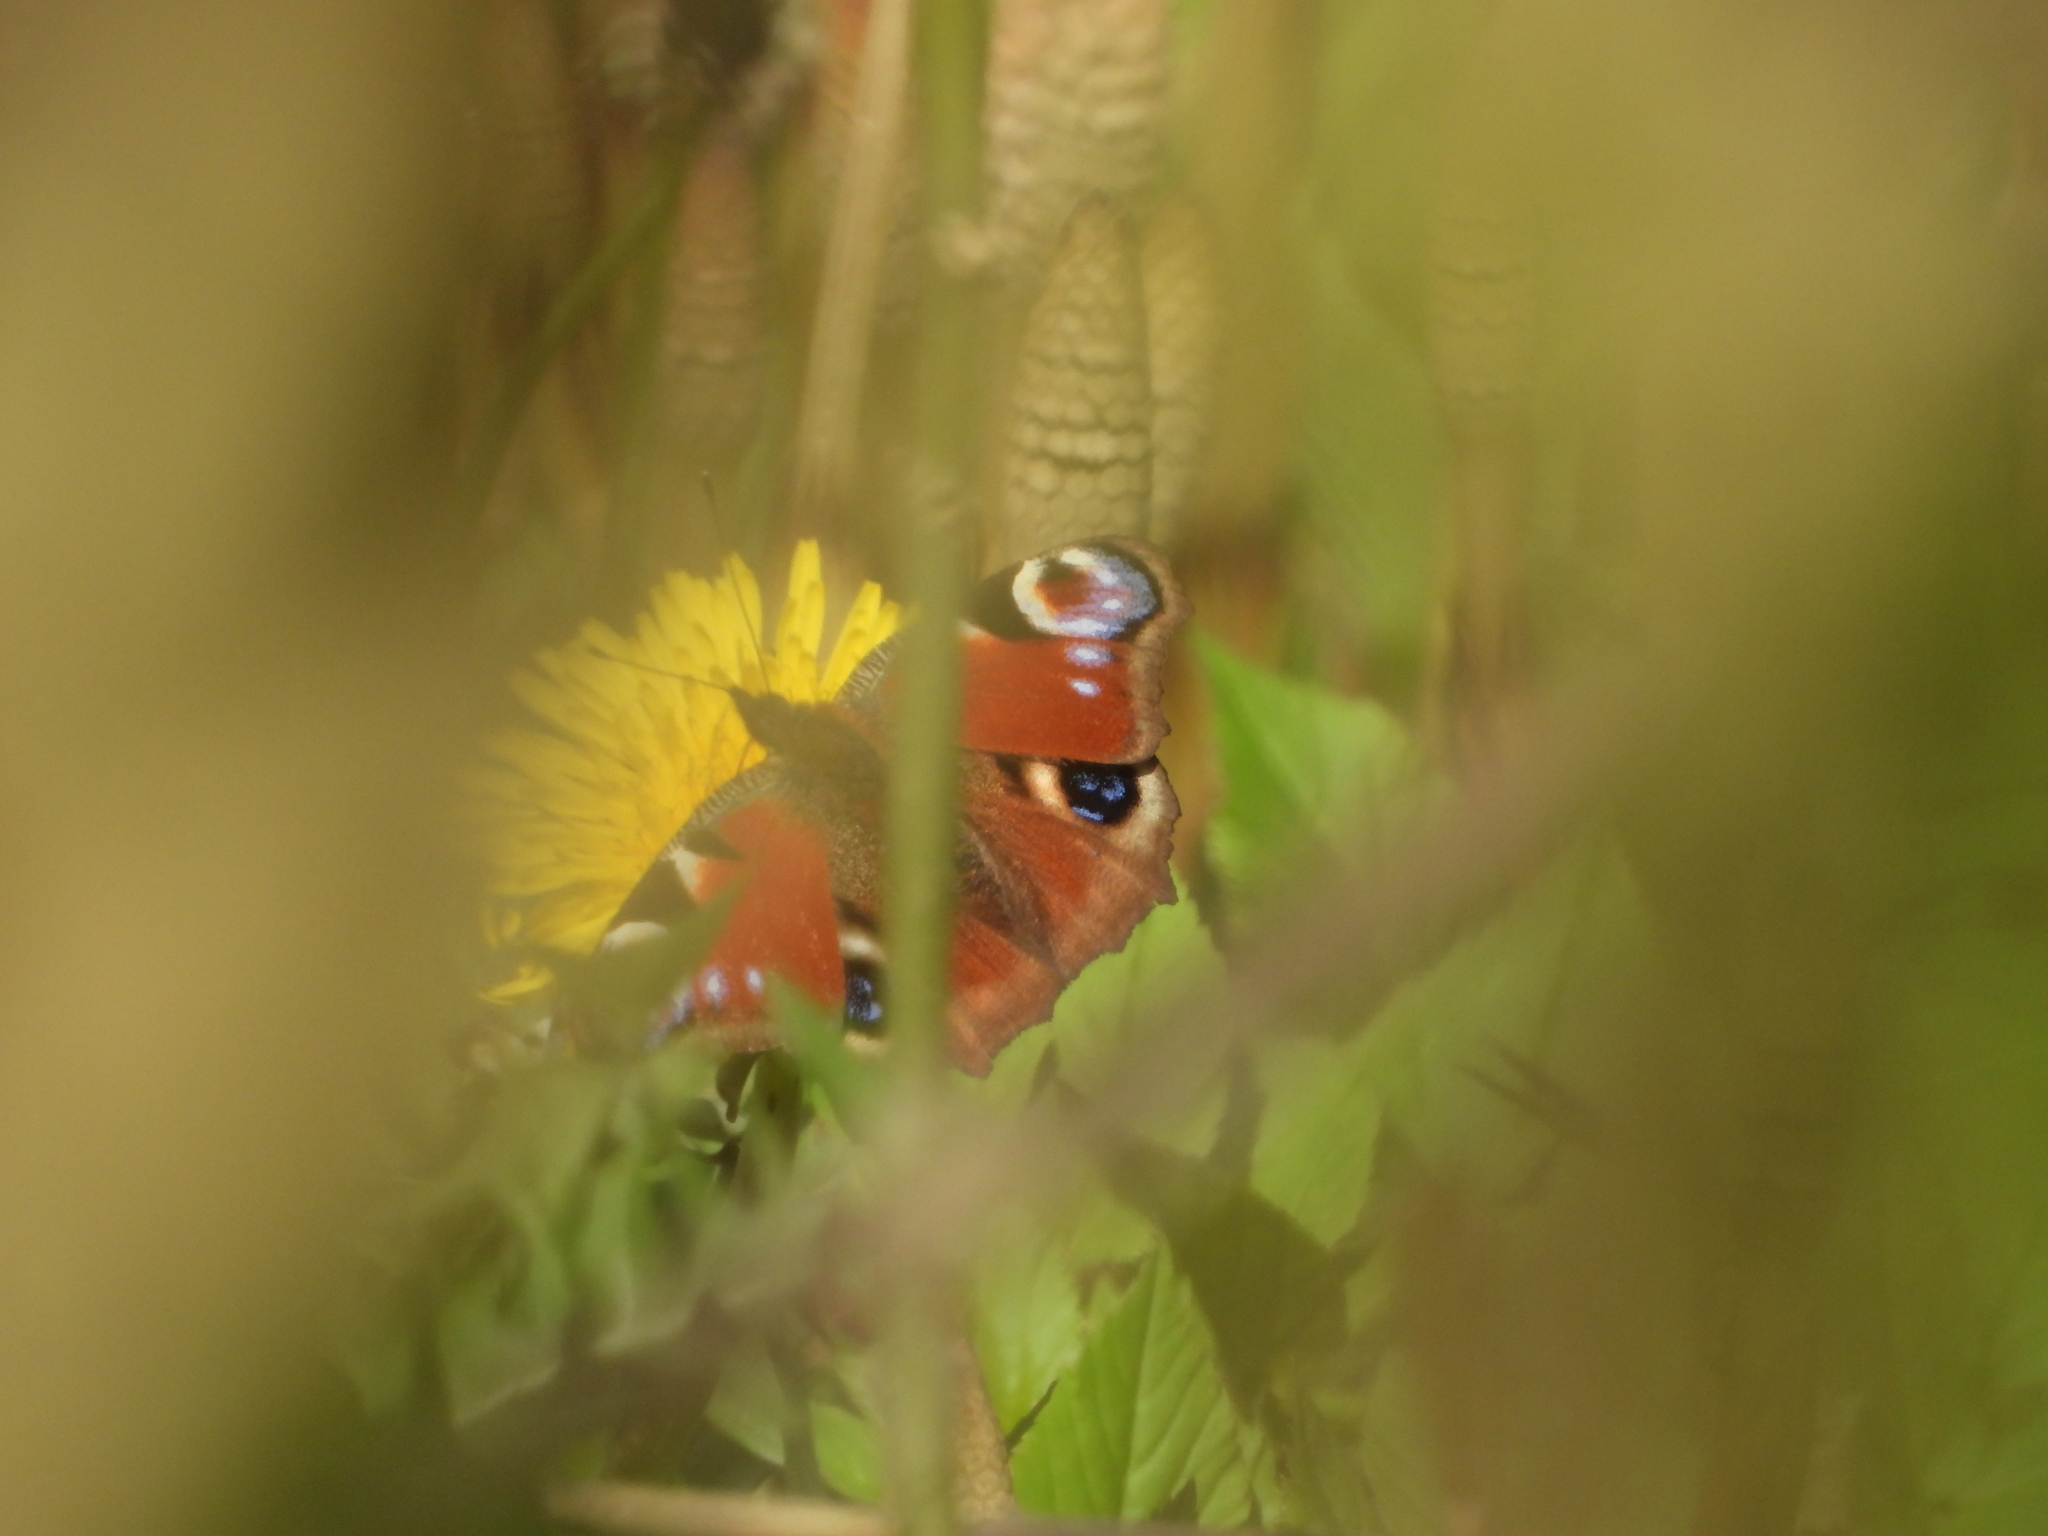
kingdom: Animalia
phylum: Arthropoda
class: Insecta
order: Lepidoptera
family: Nymphalidae
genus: Aglais
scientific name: Aglais io
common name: Peacock
